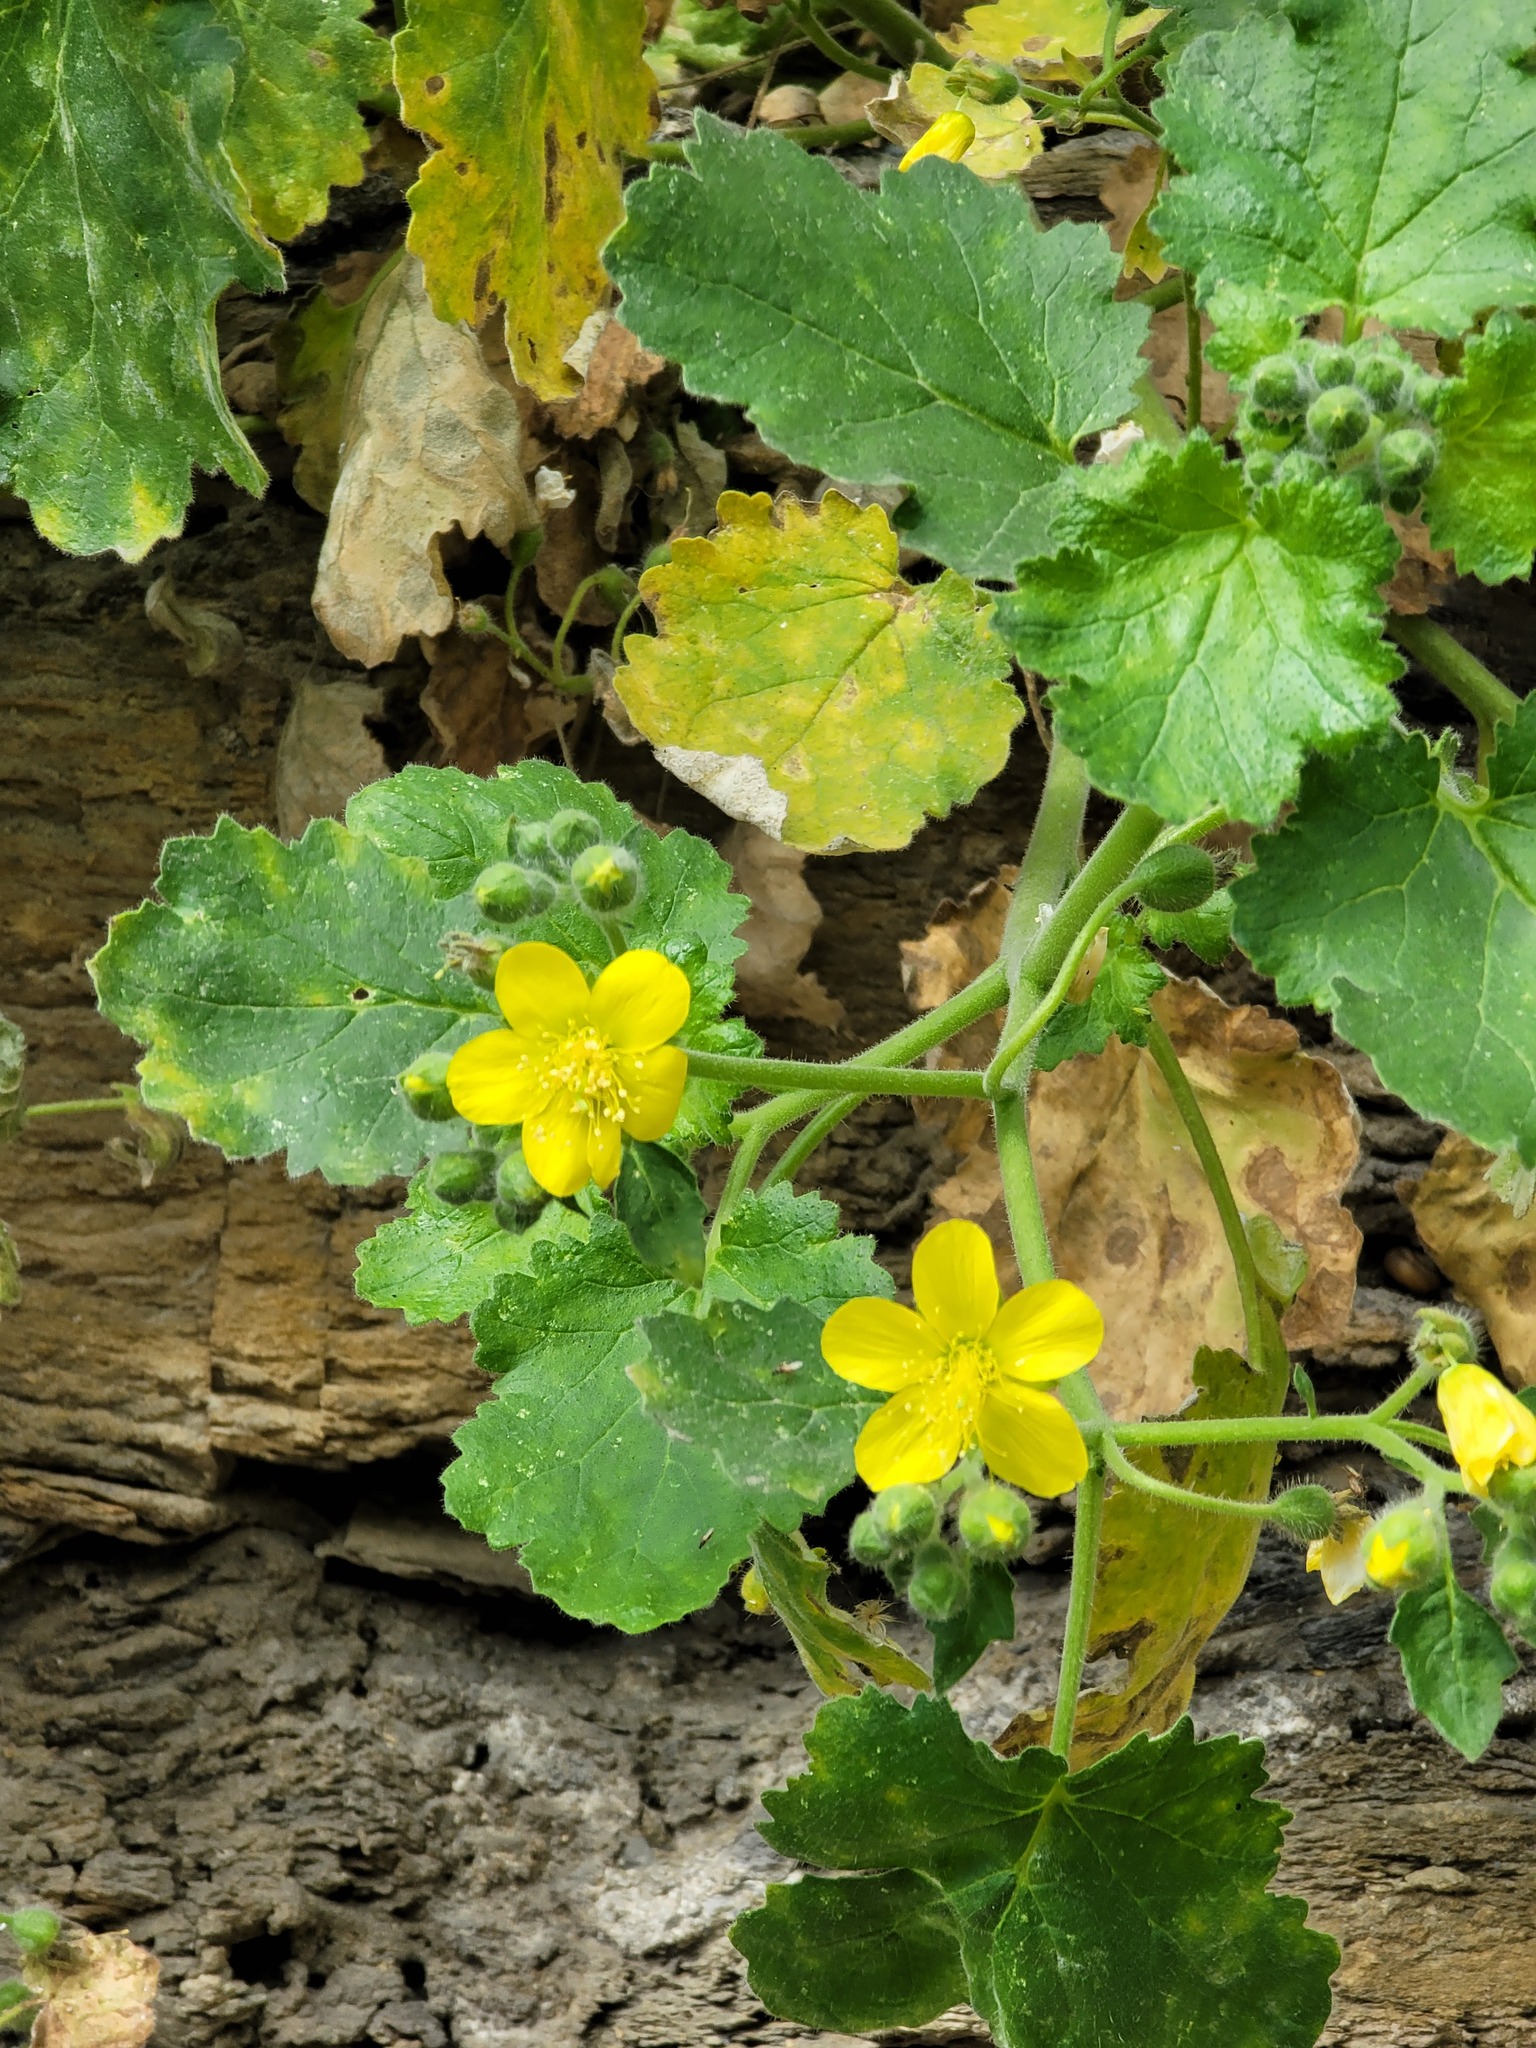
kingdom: Plantae
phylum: Tracheophyta
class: Magnoliopsida
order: Cornales
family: Loasaceae
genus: Eucnide
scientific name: Eucnide lobata
